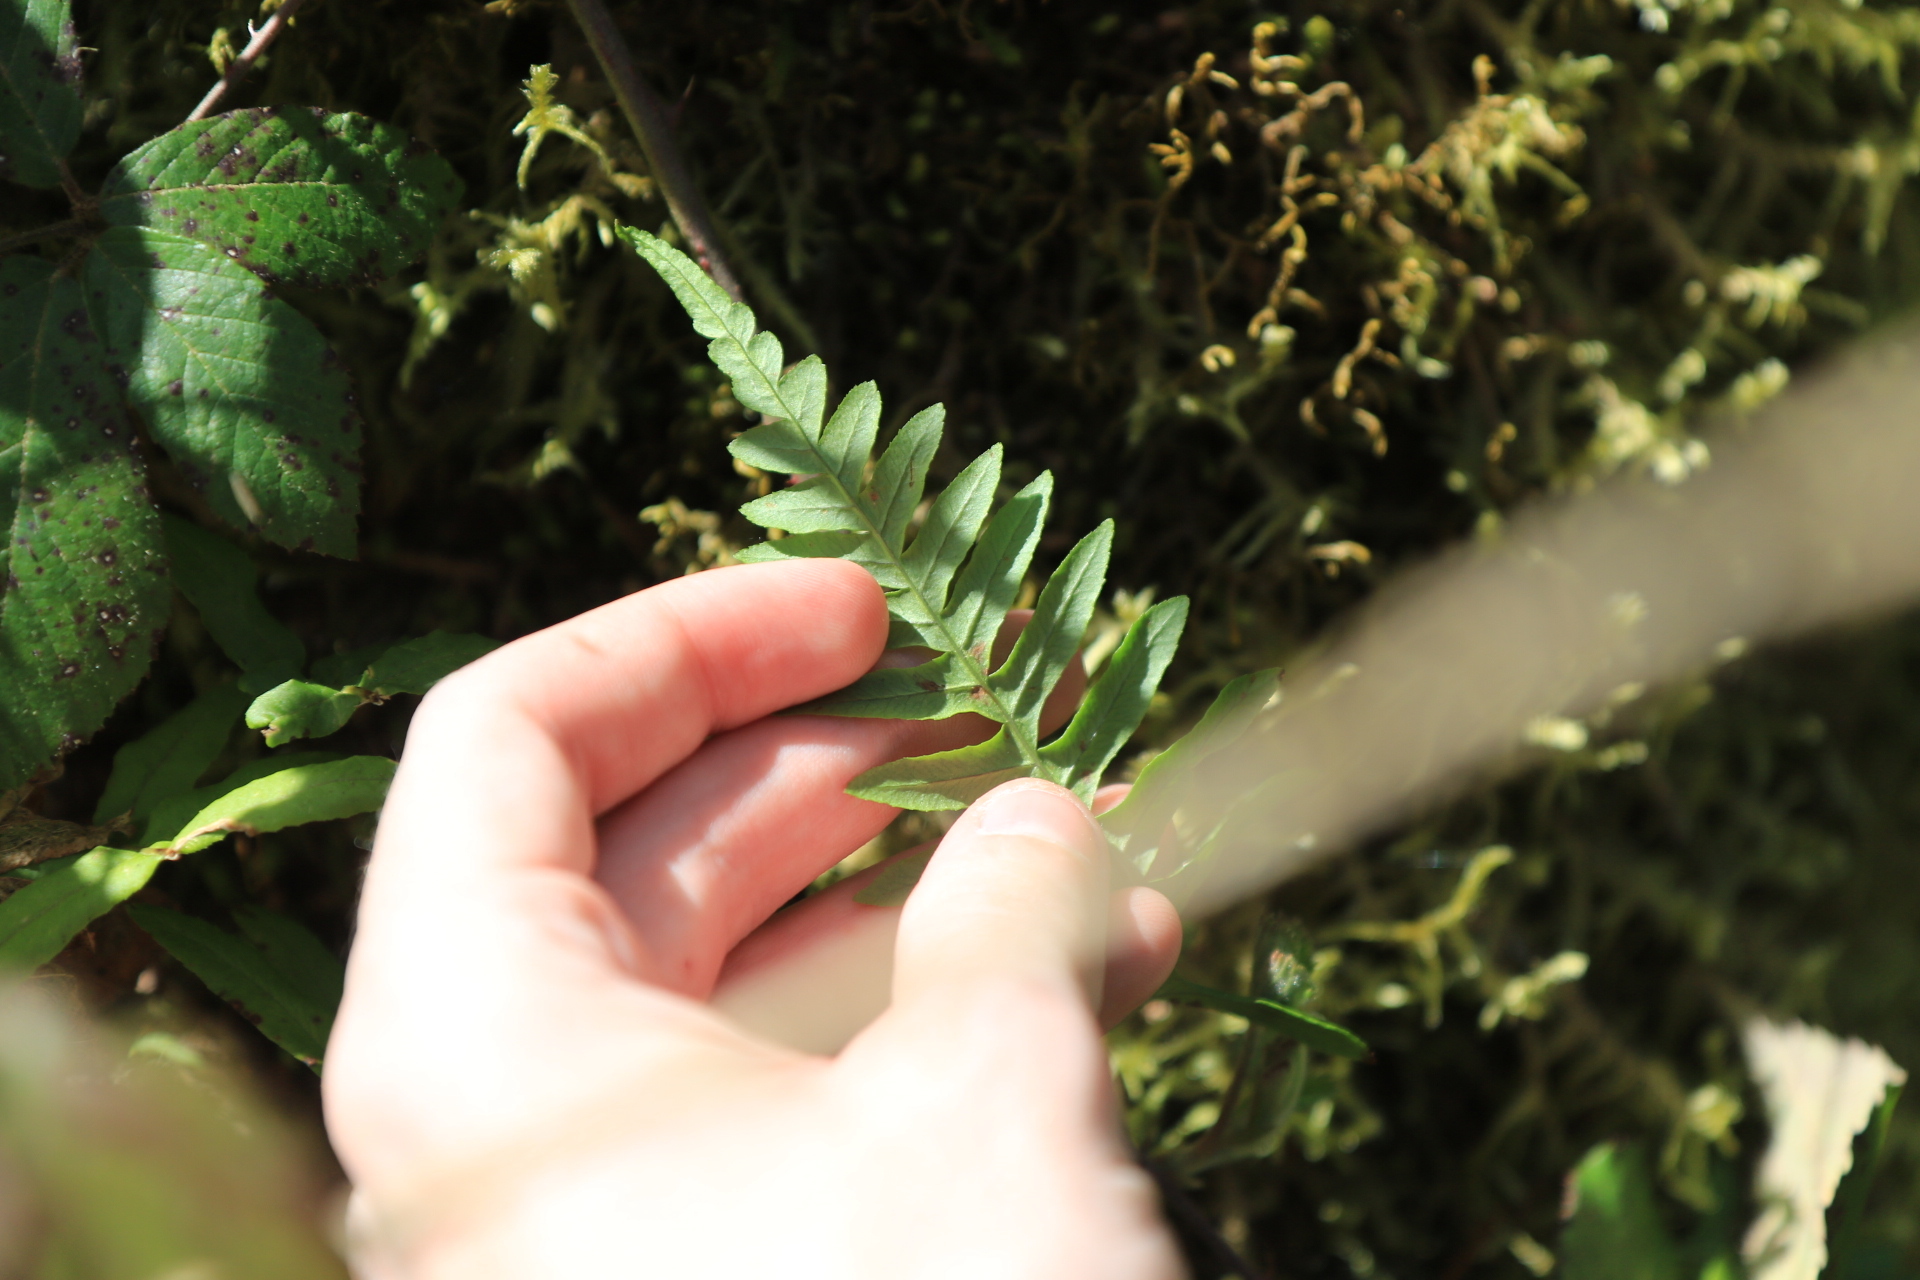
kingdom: Plantae
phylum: Tracheophyta
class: Polypodiopsida
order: Polypodiales
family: Polypodiaceae
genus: Polypodium
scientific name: Polypodium glycyrrhiza
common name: Licorice fern
